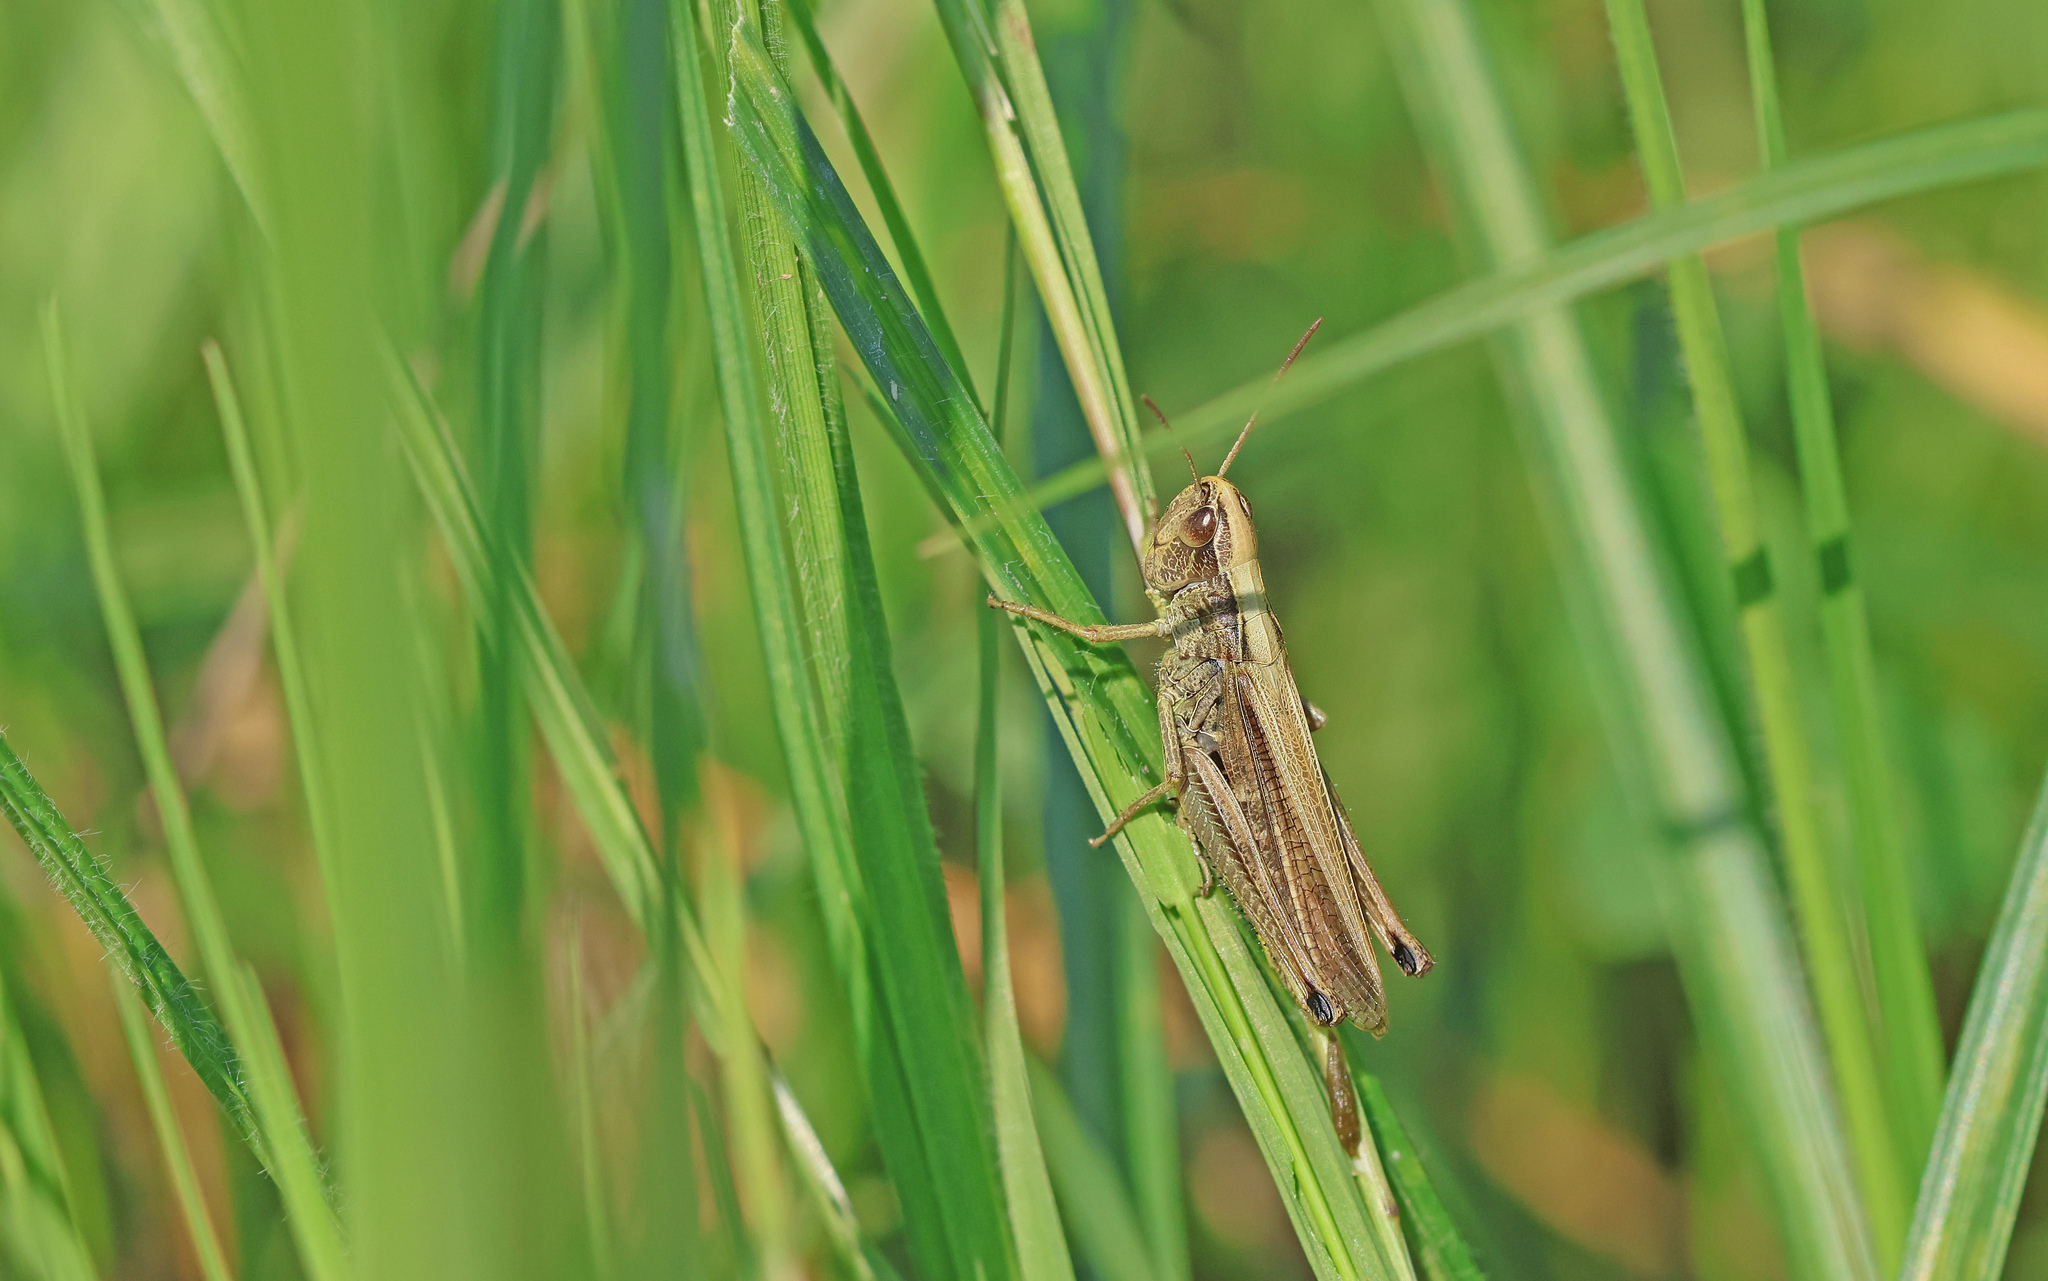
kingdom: Animalia
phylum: Arthropoda
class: Insecta
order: Orthoptera
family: Acrididae
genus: Pseudochorthippus
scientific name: Pseudochorthippus parallelus
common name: Meadow grasshopper
